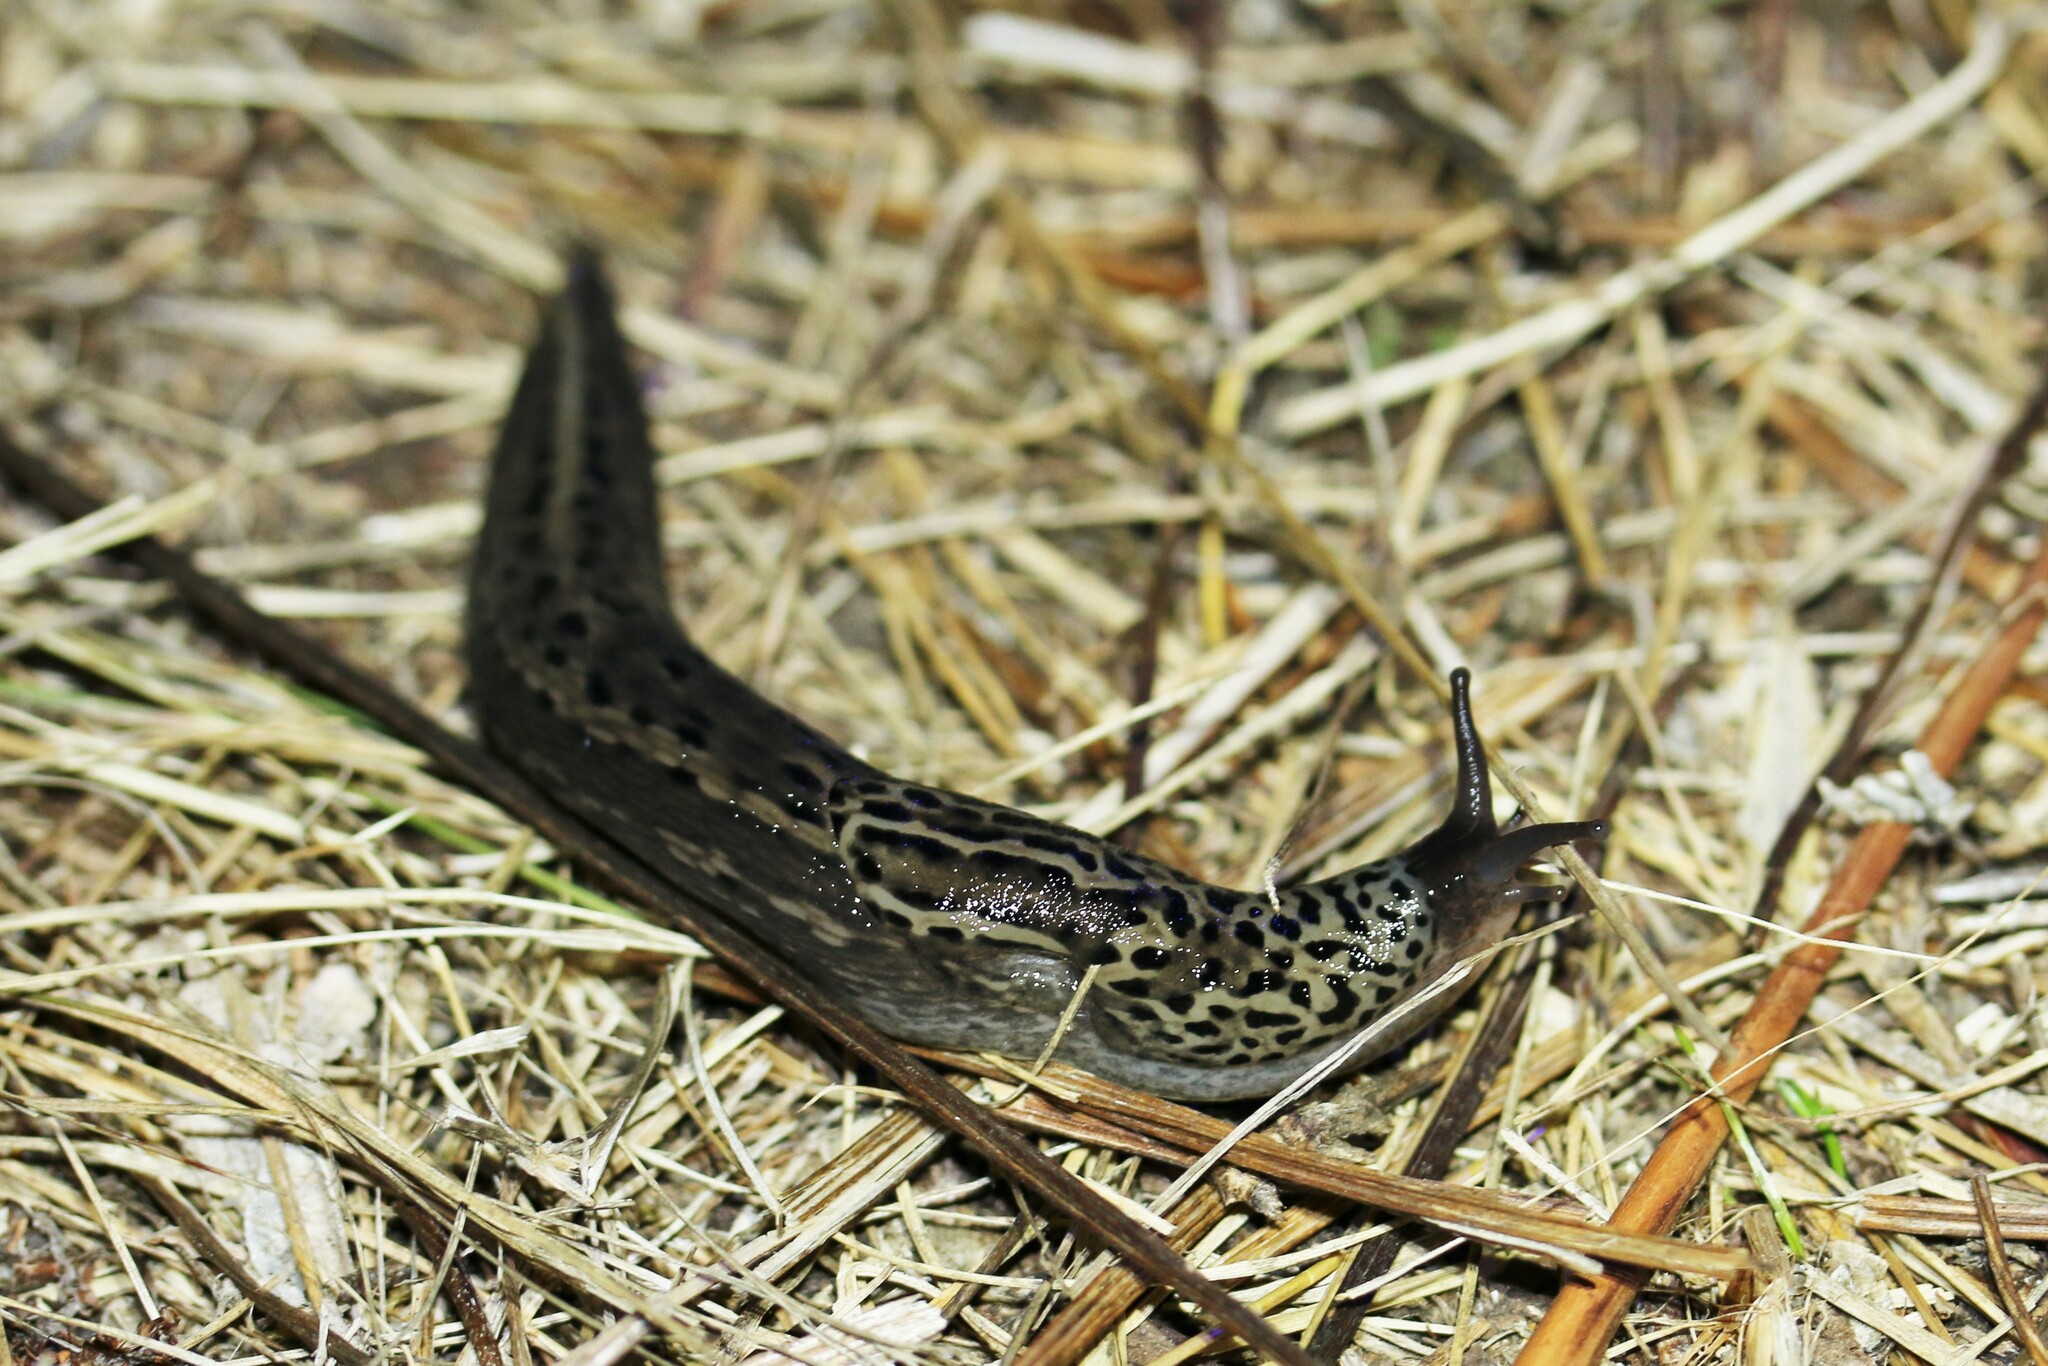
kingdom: Animalia
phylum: Mollusca
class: Gastropoda
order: Stylommatophora
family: Limacidae
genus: Limax
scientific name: Limax maximus
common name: Great grey slug
